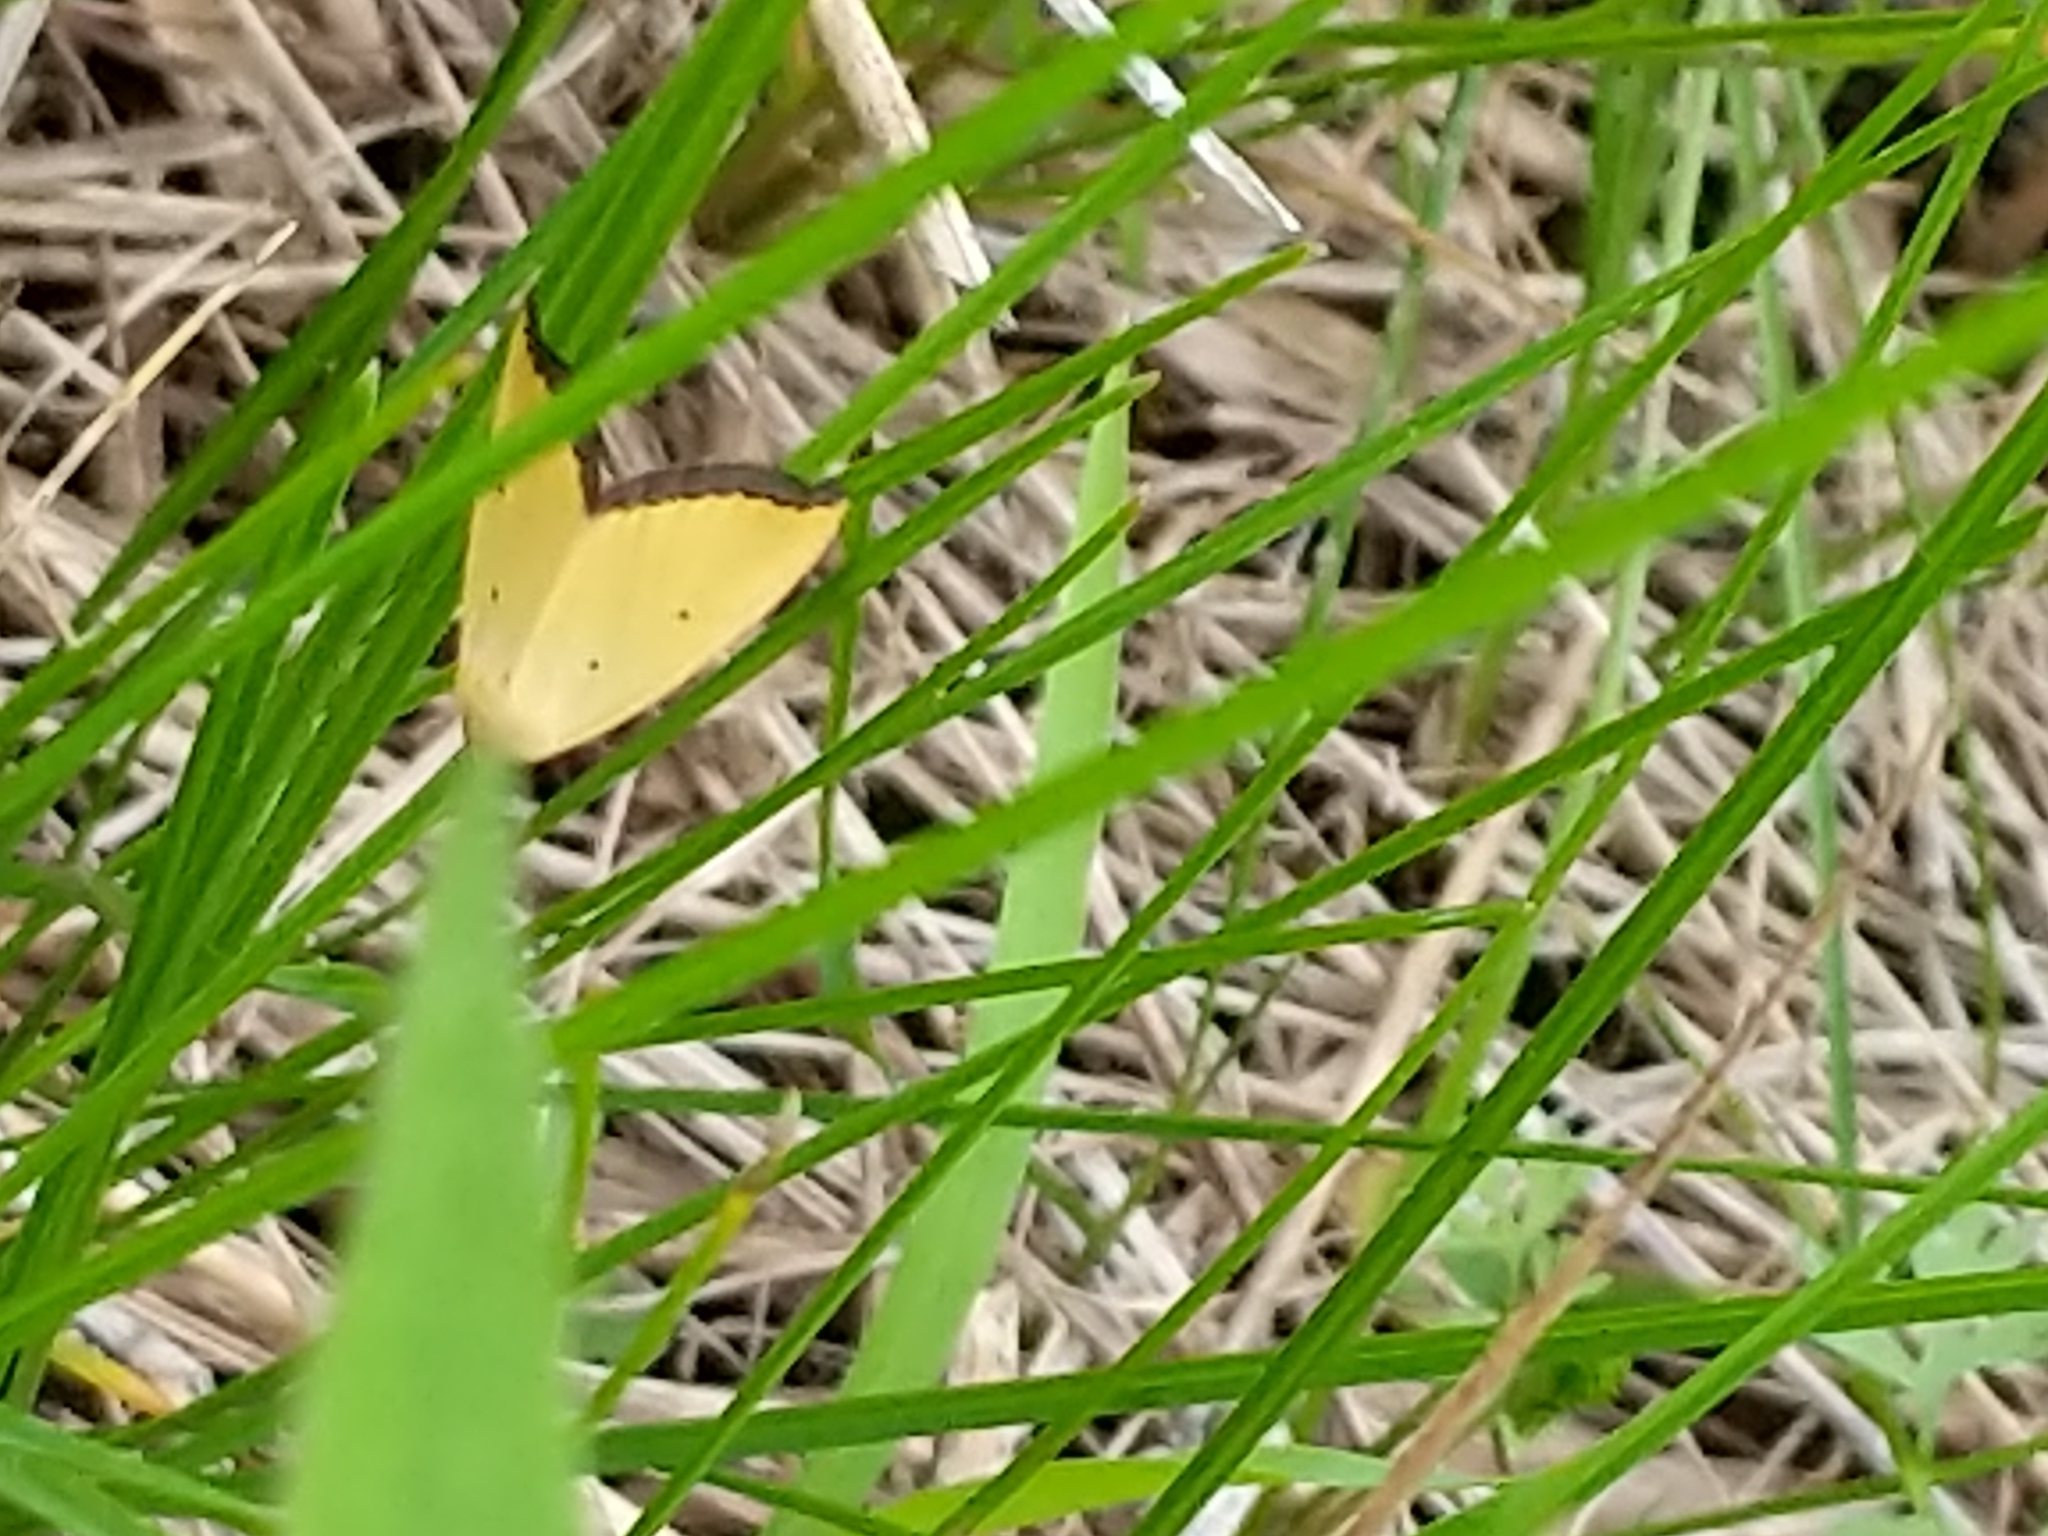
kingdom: Animalia
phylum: Arthropoda
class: Insecta
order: Lepidoptera
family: Noctuidae
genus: Marimatha
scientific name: Marimatha nigrofimbria
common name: Black-bordered lemon moth
